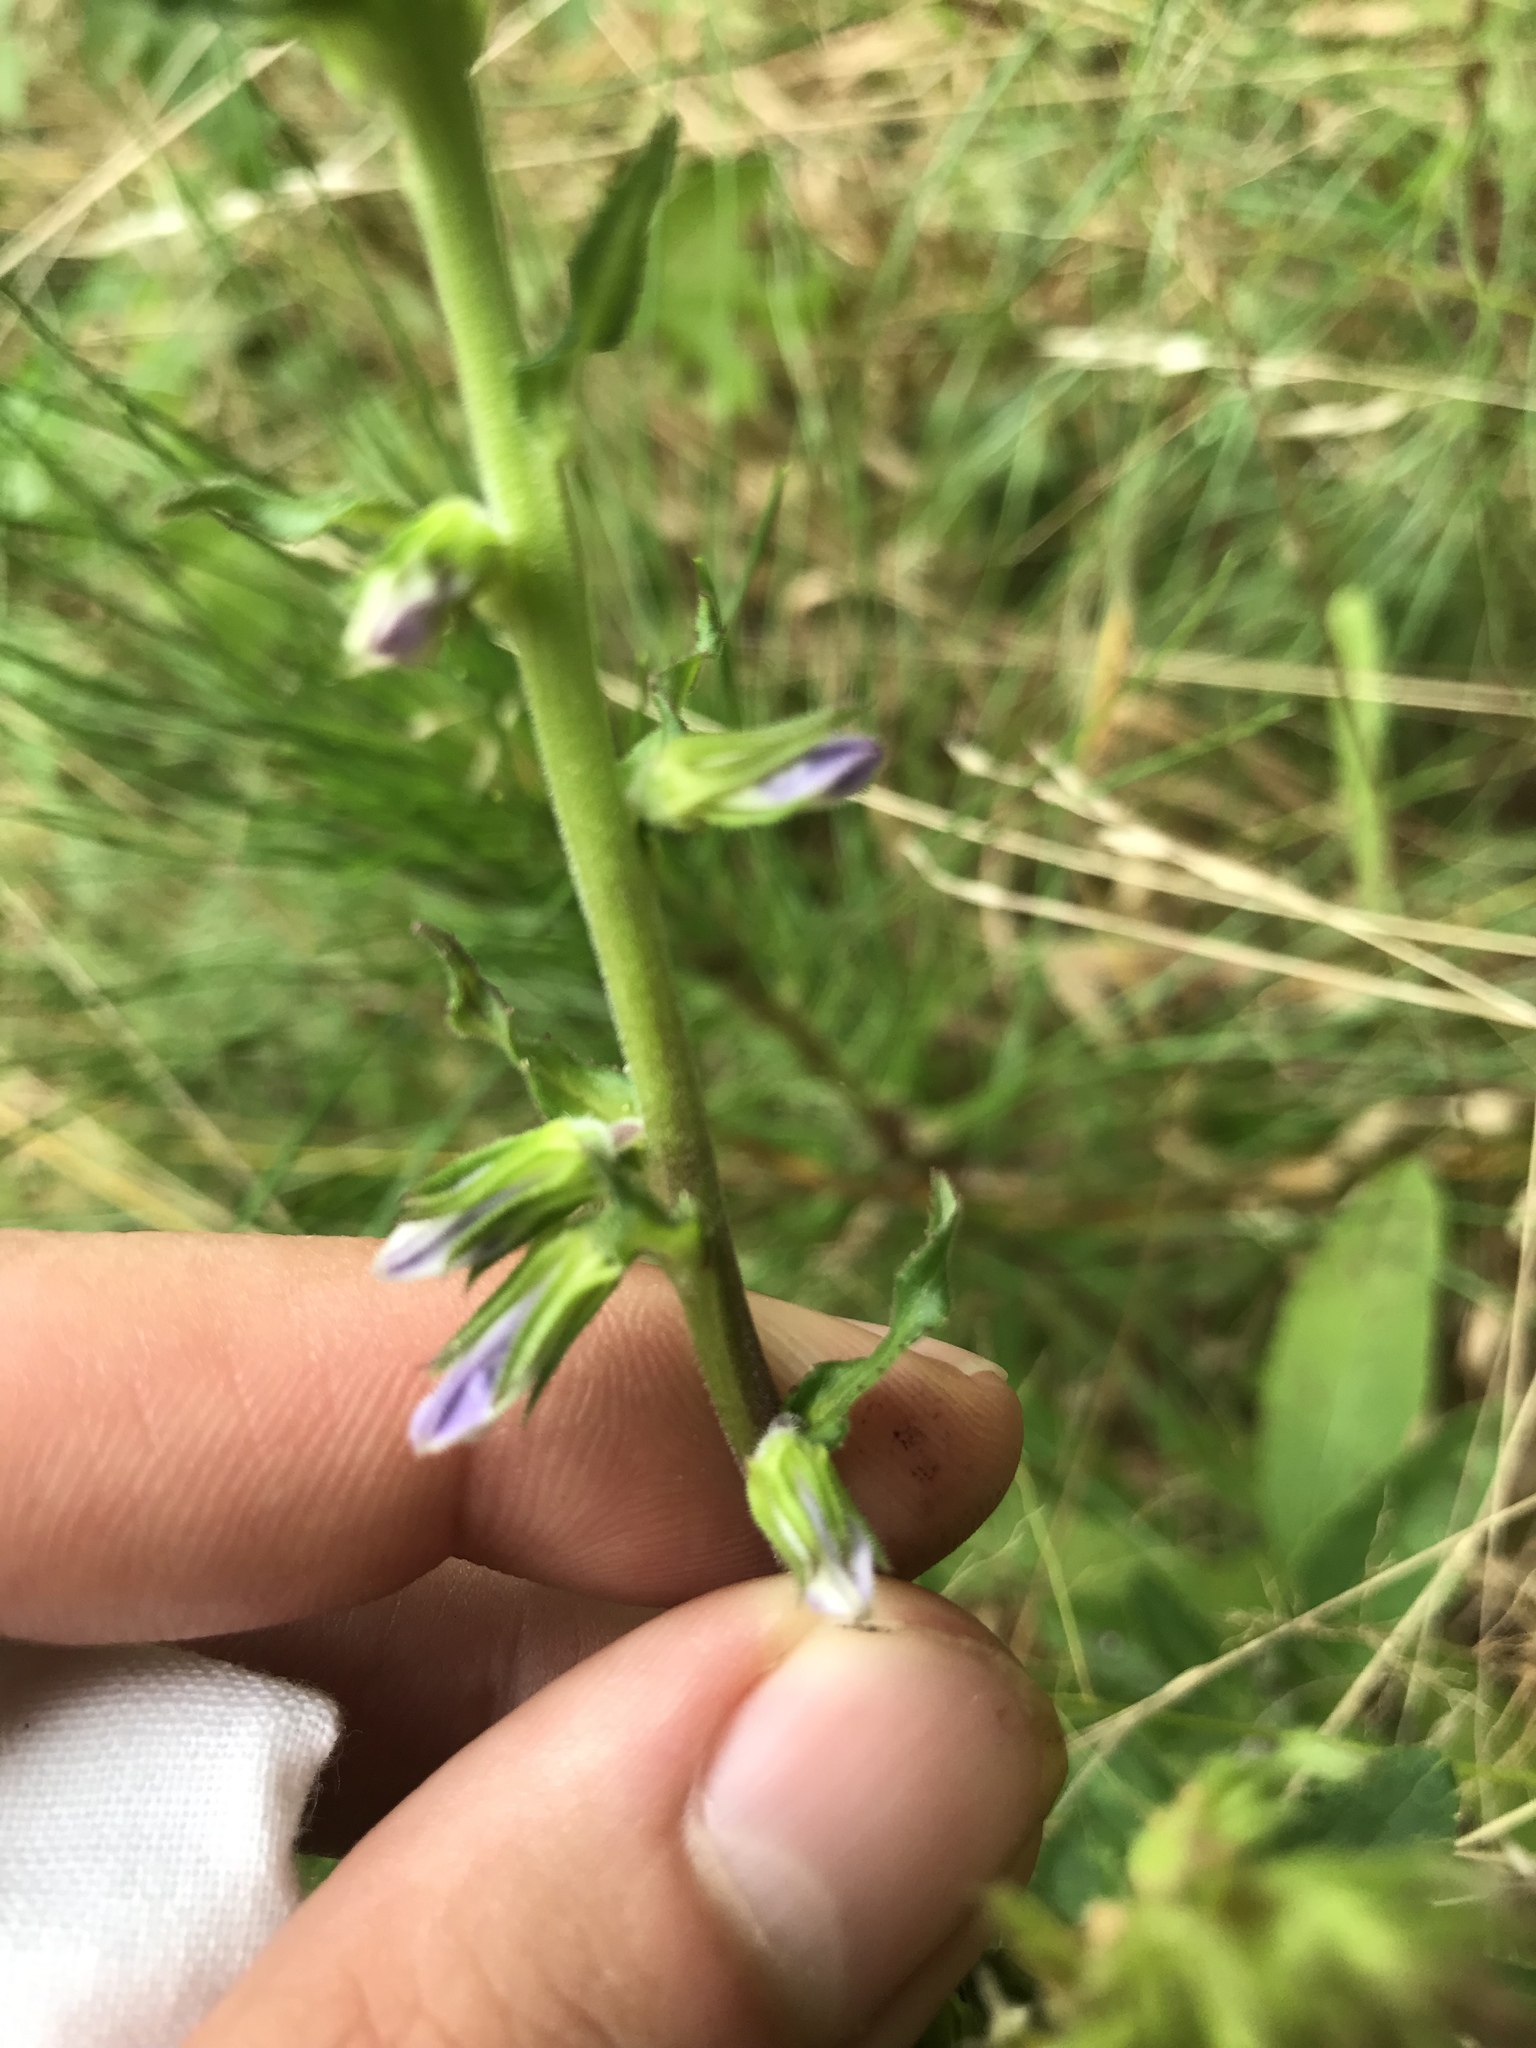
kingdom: Plantae
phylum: Tracheophyta
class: Magnoliopsida
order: Asterales
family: Campanulaceae
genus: Lobelia
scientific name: Lobelia puberula
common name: Purple dewdrop
